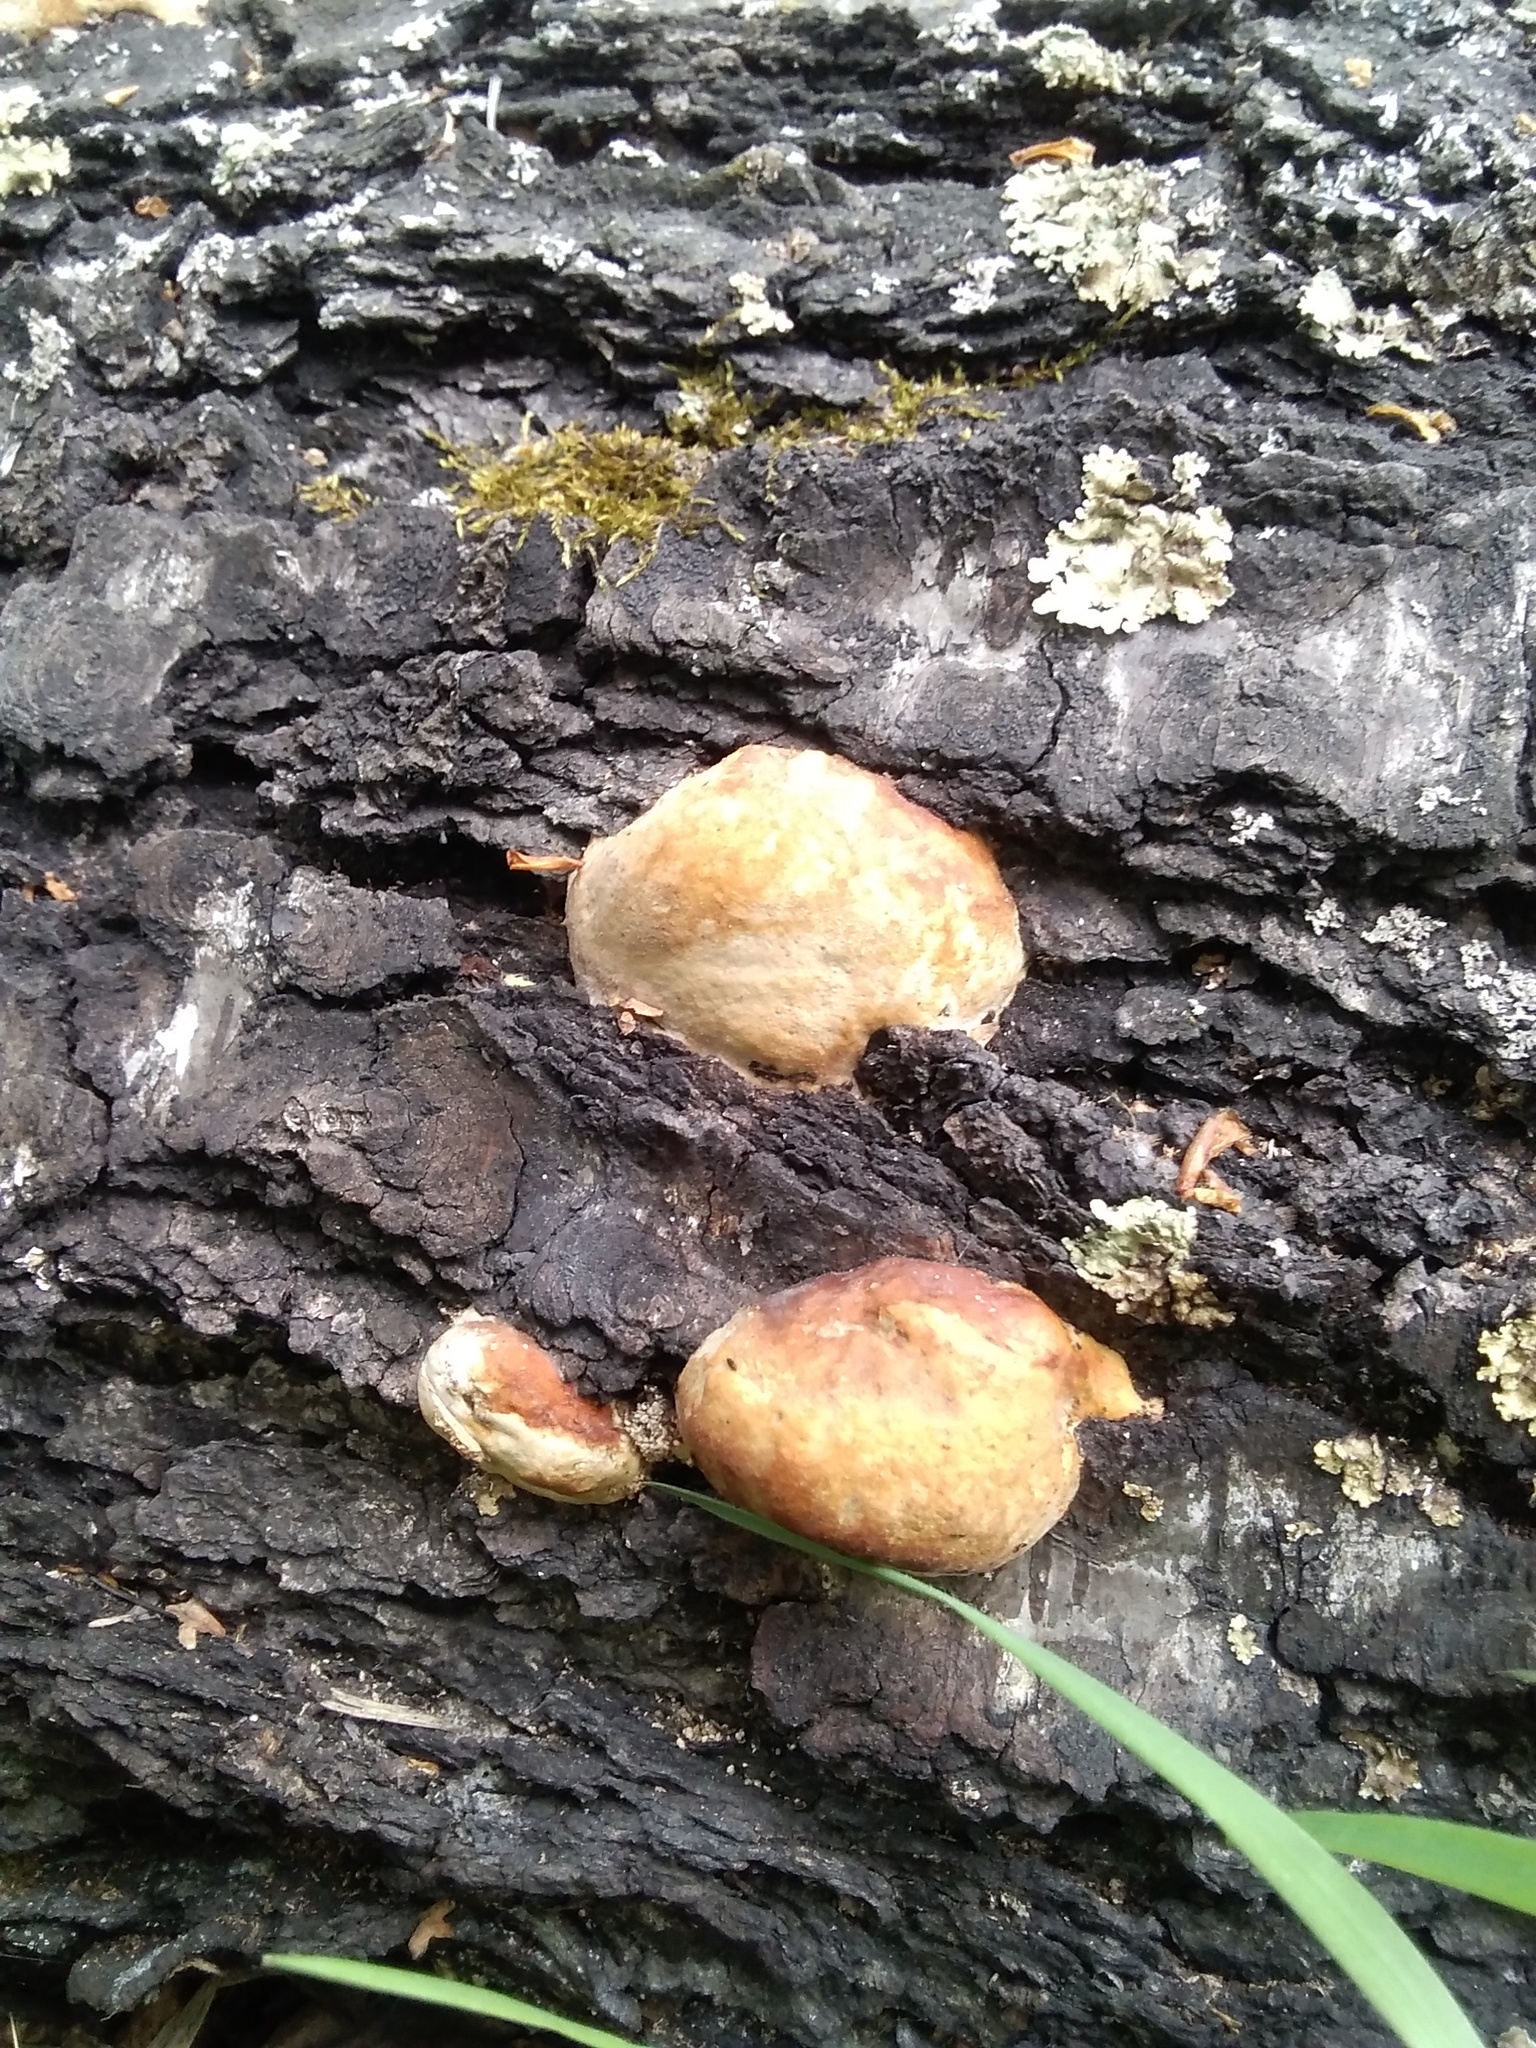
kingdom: Fungi
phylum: Basidiomycota
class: Agaricomycetes
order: Polyporales
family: Fomitopsidaceae
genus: Fomitopsis
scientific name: Fomitopsis pinicola
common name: Red-belted bracket
